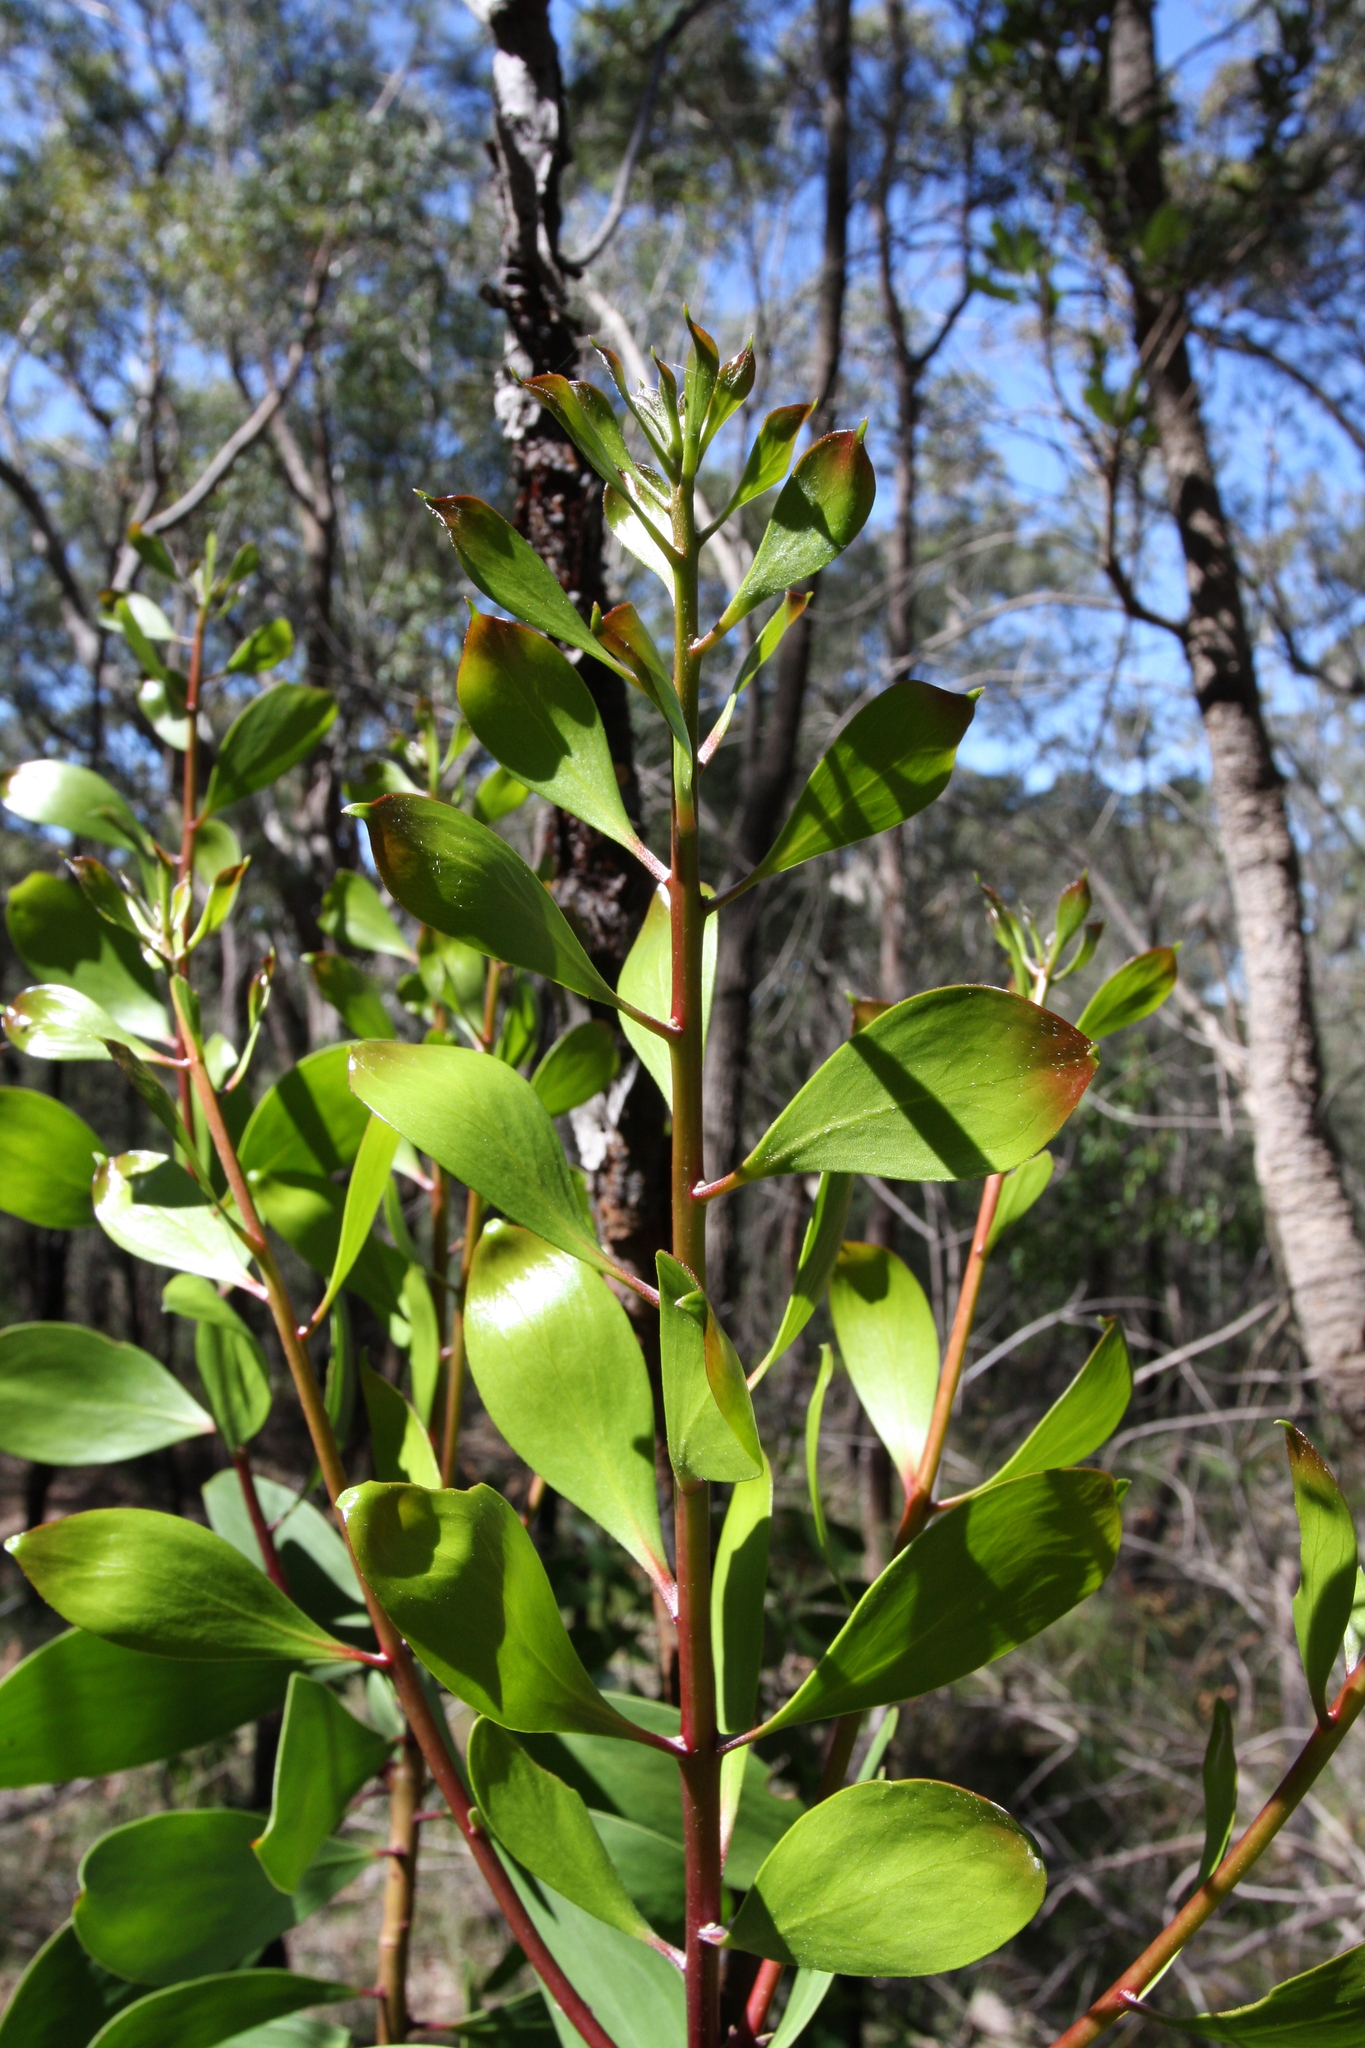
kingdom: Plantae
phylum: Tracheophyta
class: Magnoliopsida
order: Proteales
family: Proteaceae
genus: Persoonia
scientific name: Persoonia levis
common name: Smooth geebung
